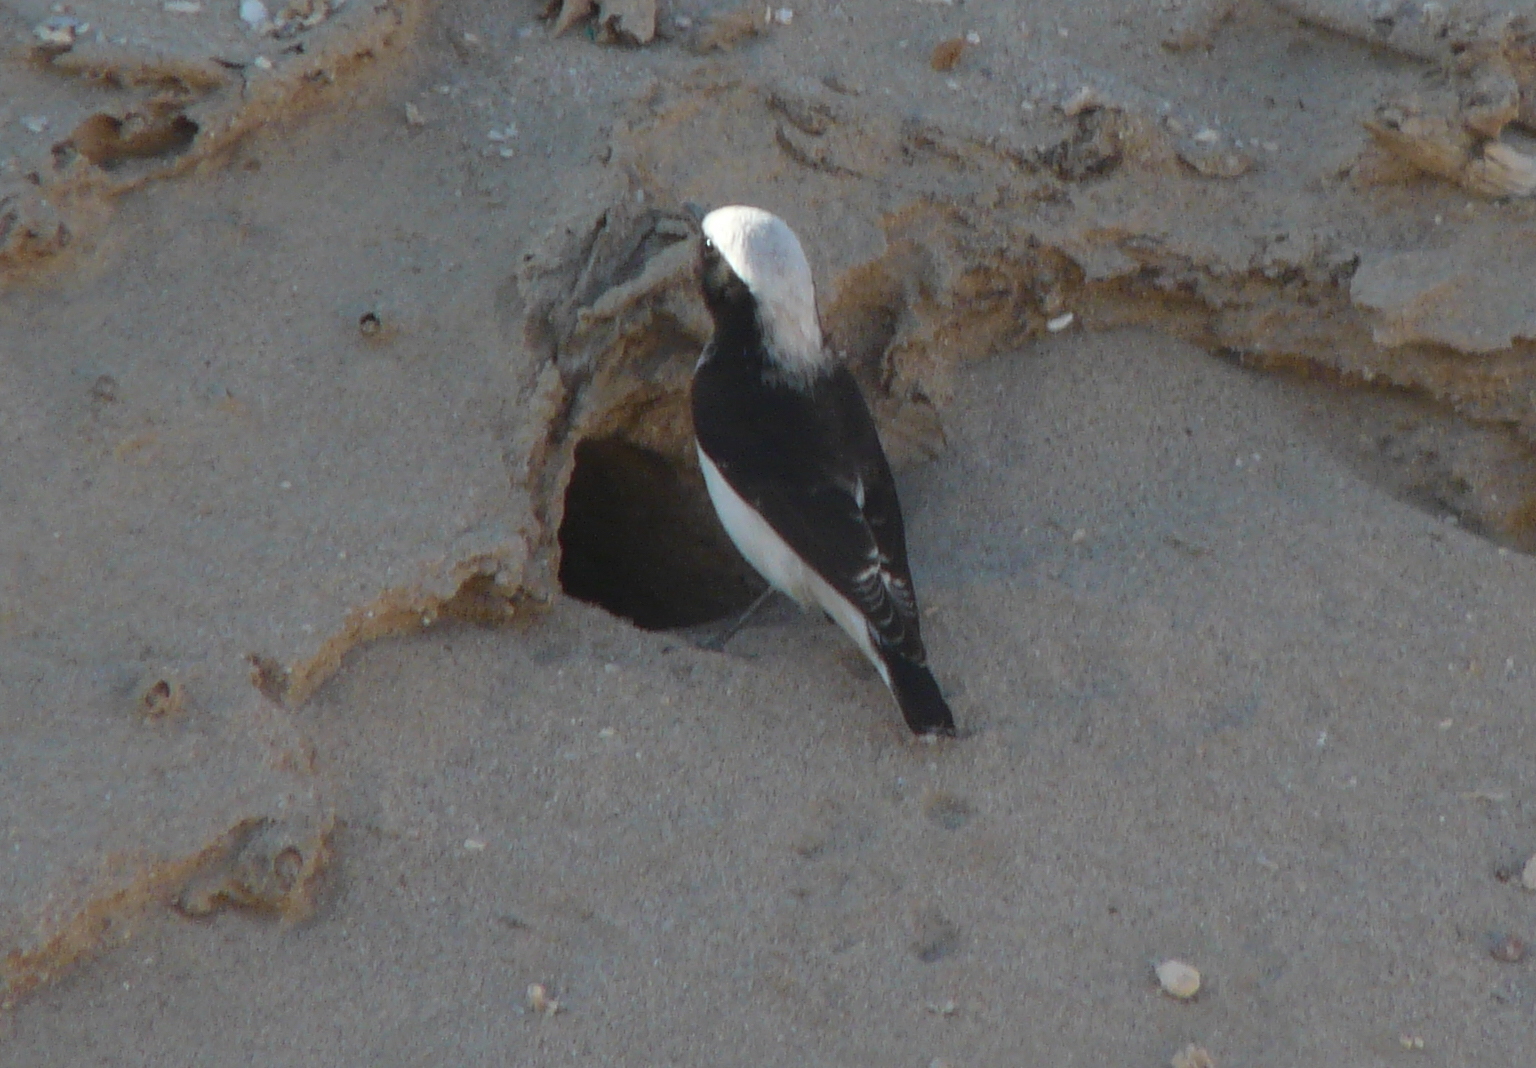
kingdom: Animalia
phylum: Chordata
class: Aves
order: Passeriformes
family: Muscicapidae
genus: Oenanthe
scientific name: Oenanthe lugens
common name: Mourning wheatear
